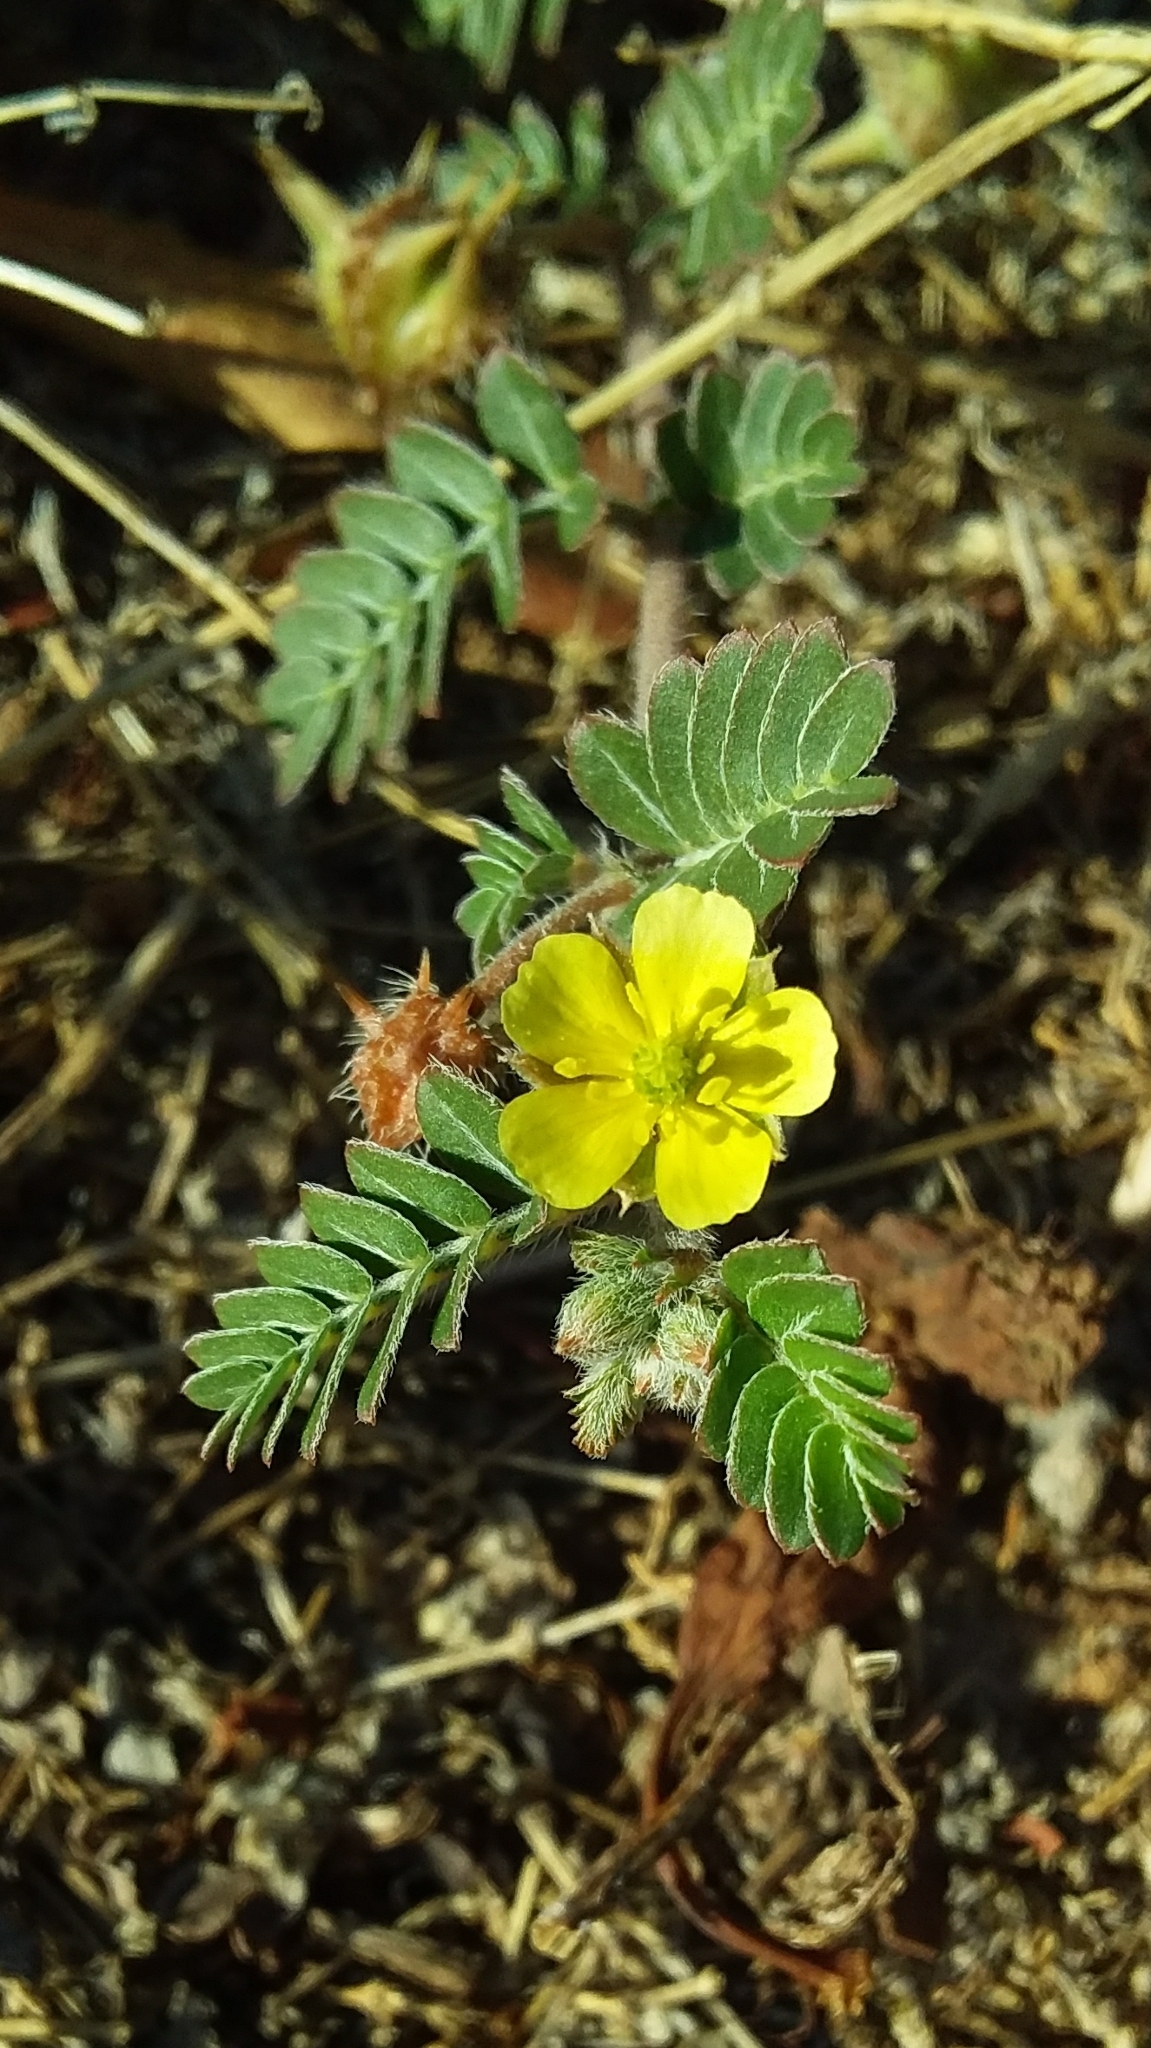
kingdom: Plantae
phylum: Tracheophyta
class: Magnoliopsida
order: Zygophyllales
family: Zygophyllaceae
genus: Tribulus
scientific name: Tribulus terrestris
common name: Puncturevine
